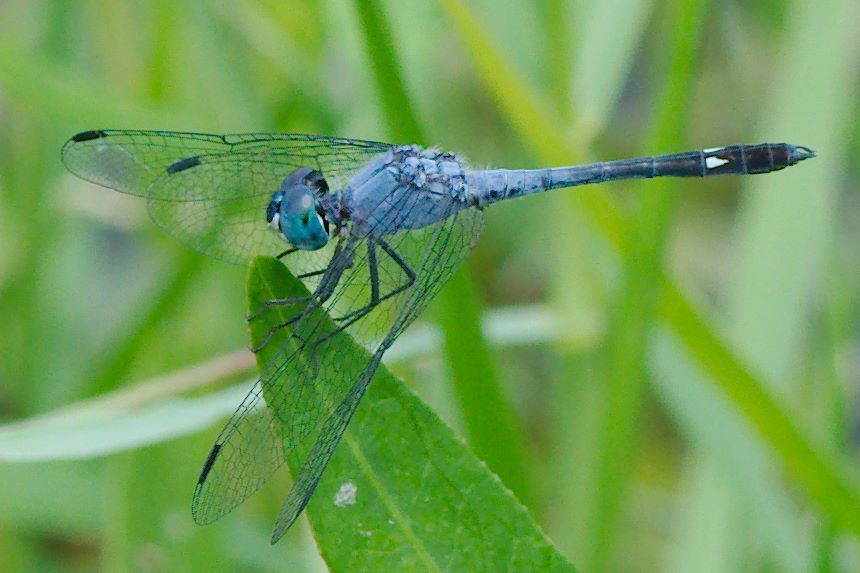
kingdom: Animalia
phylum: Arthropoda
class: Insecta
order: Odonata
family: Libellulidae
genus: Micrathyria
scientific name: Micrathyria aequalis
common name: Spot-tailed dasher
